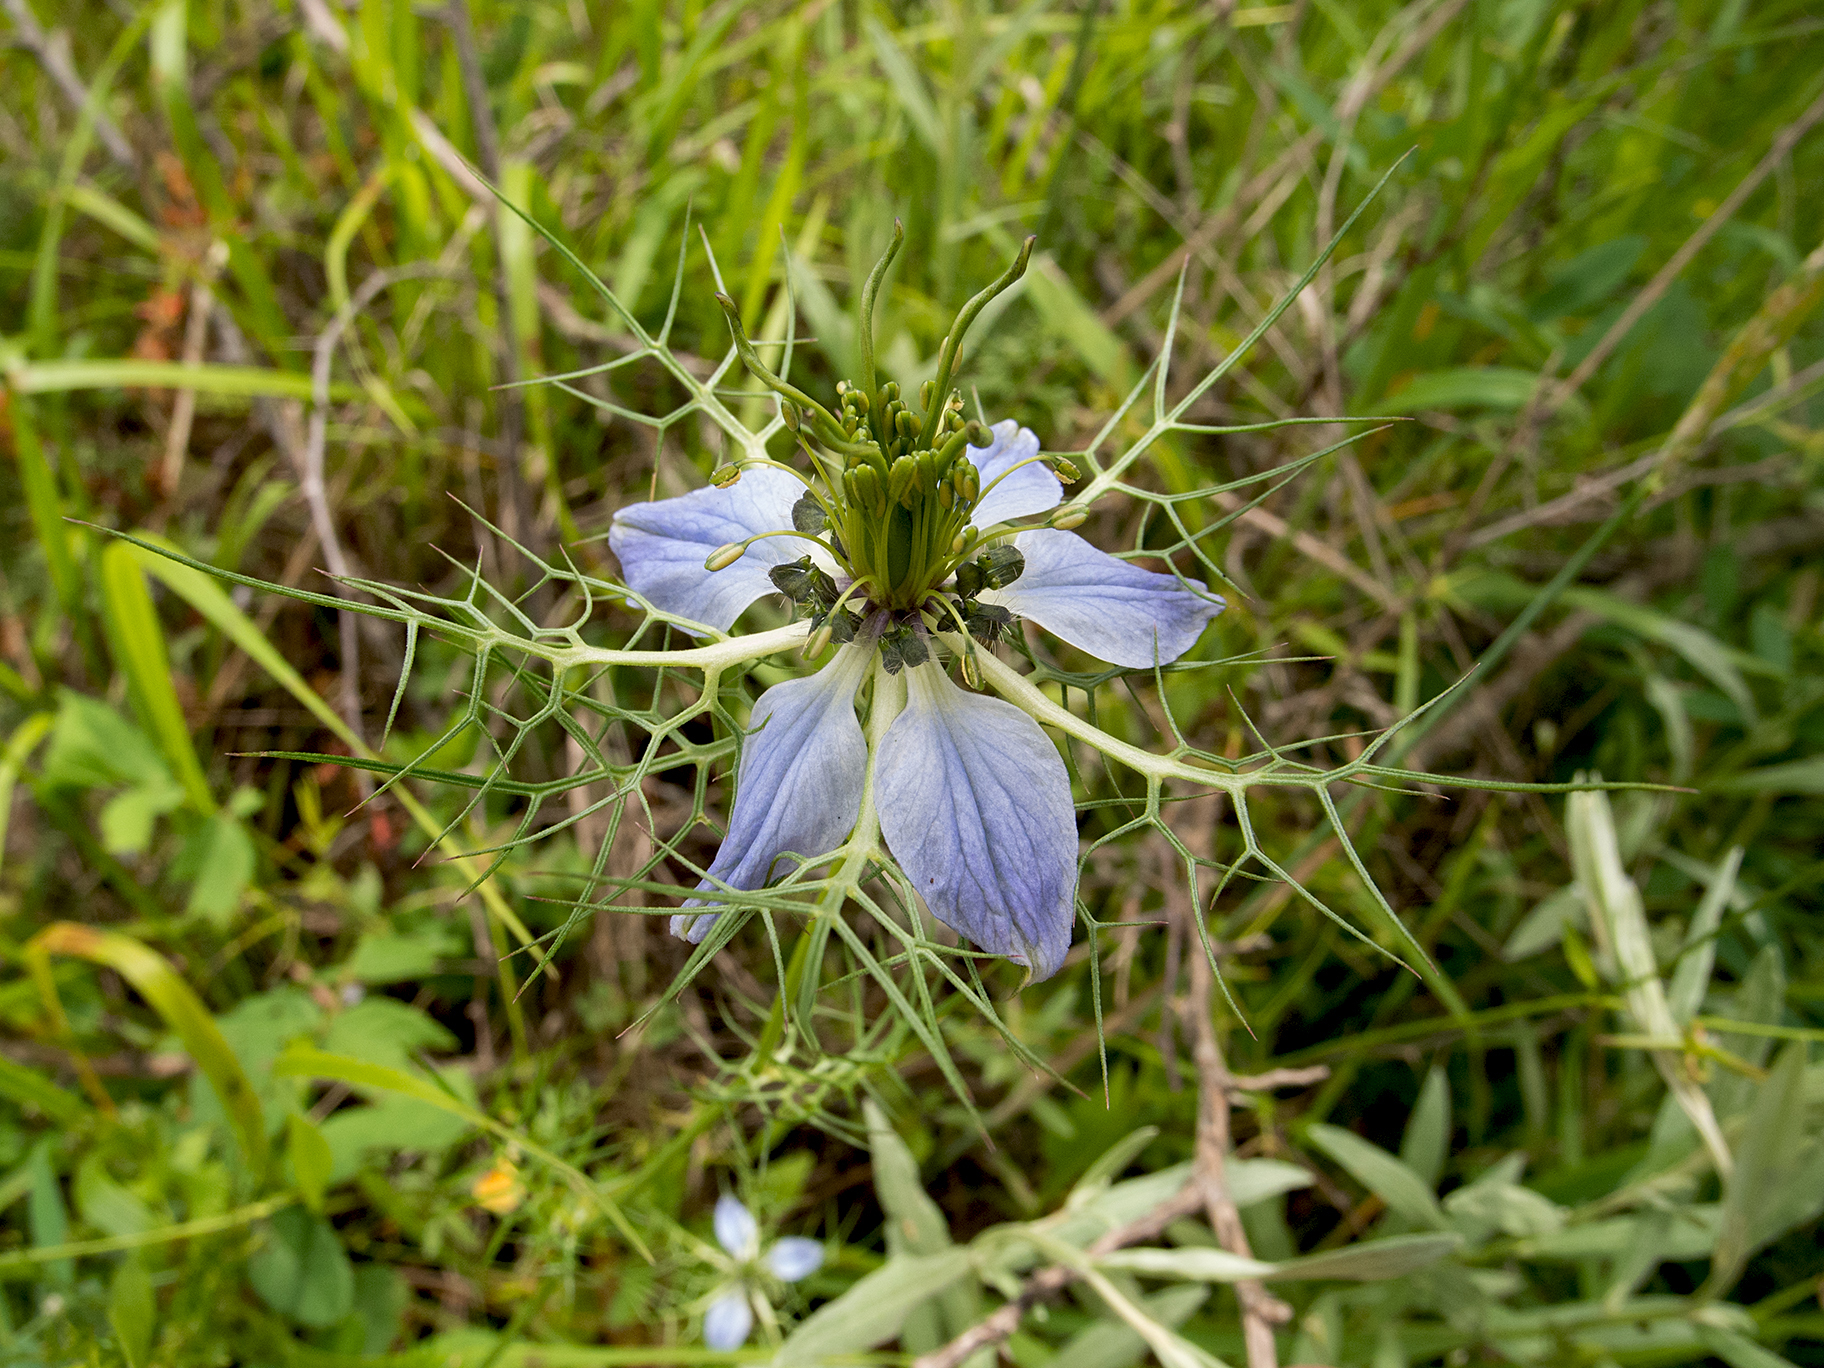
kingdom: Plantae
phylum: Tracheophyta
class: Magnoliopsida
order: Ranunculales
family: Ranunculaceae
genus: Nigella
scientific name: Nigella damascena
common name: Love-in-a-mist
